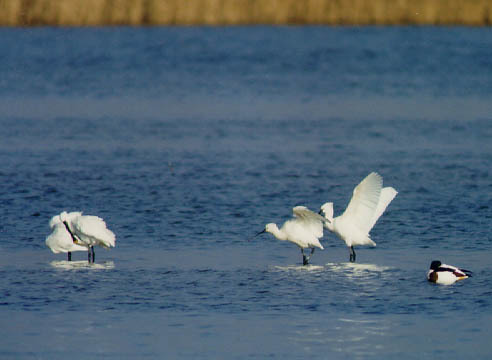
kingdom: Animalia
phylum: Chordata
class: Aves
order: Pelecaniformes
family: Threskiornithidae
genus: Platalea
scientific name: Platalea leucorodia
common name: Eurasian spoonbill
